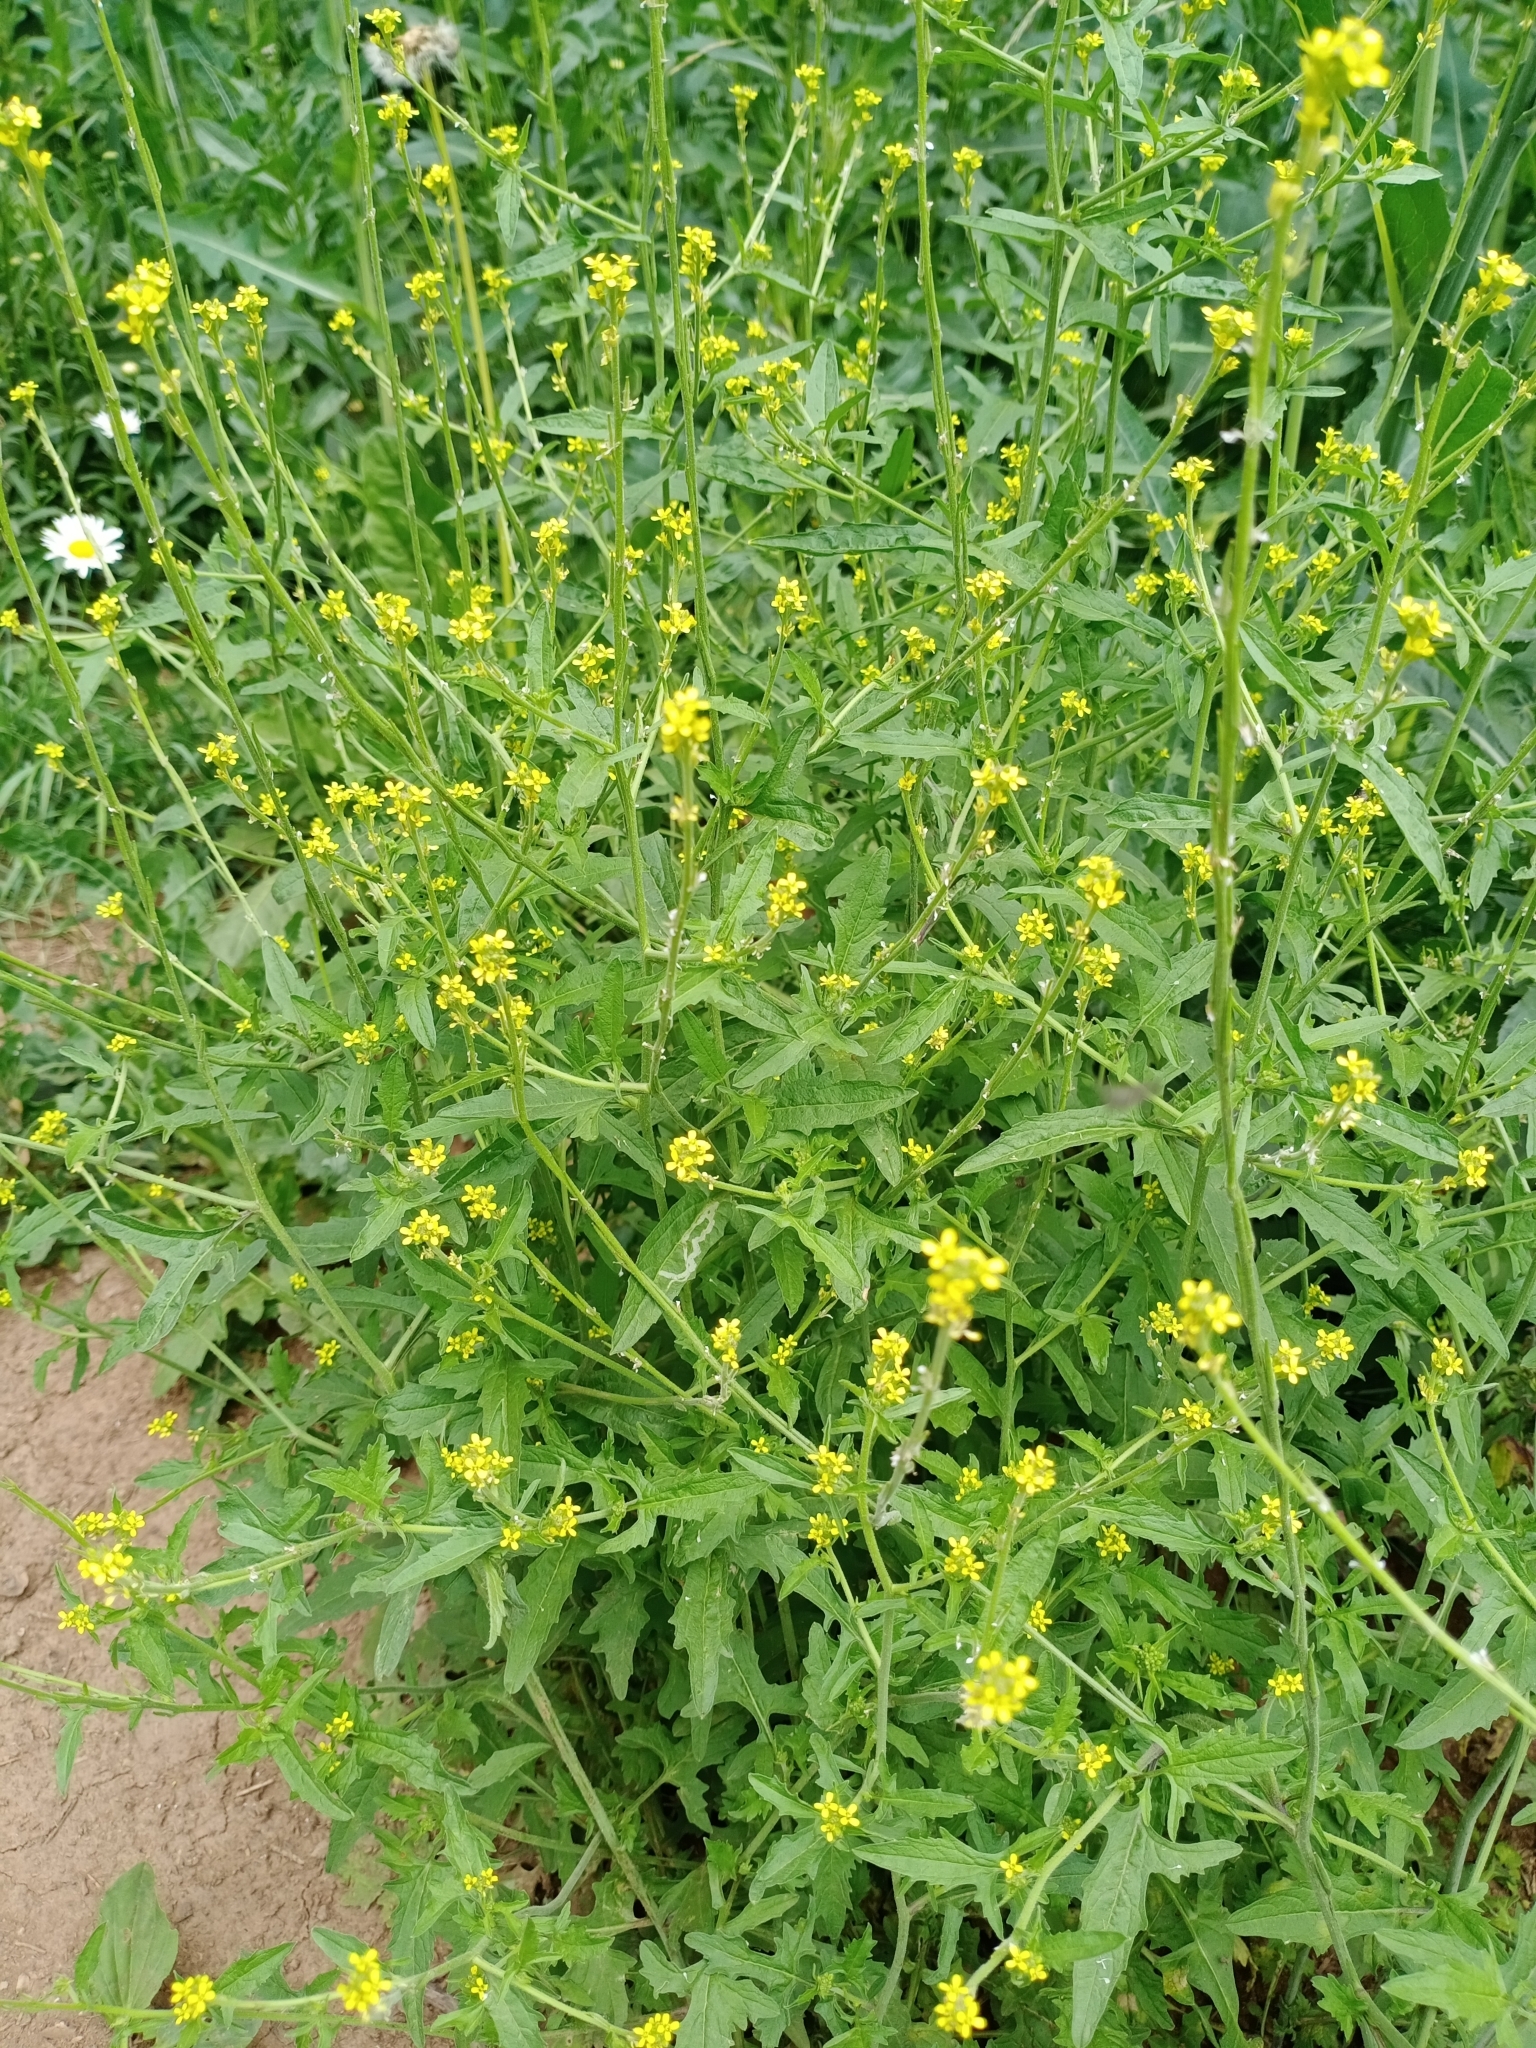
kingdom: Plantae
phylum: Tracheophyta
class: Magnoliopsida
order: Brassicales
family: Brassicaceae
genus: Sisymbrium
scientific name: Sisymbrium officinale
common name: Hedge mustard
